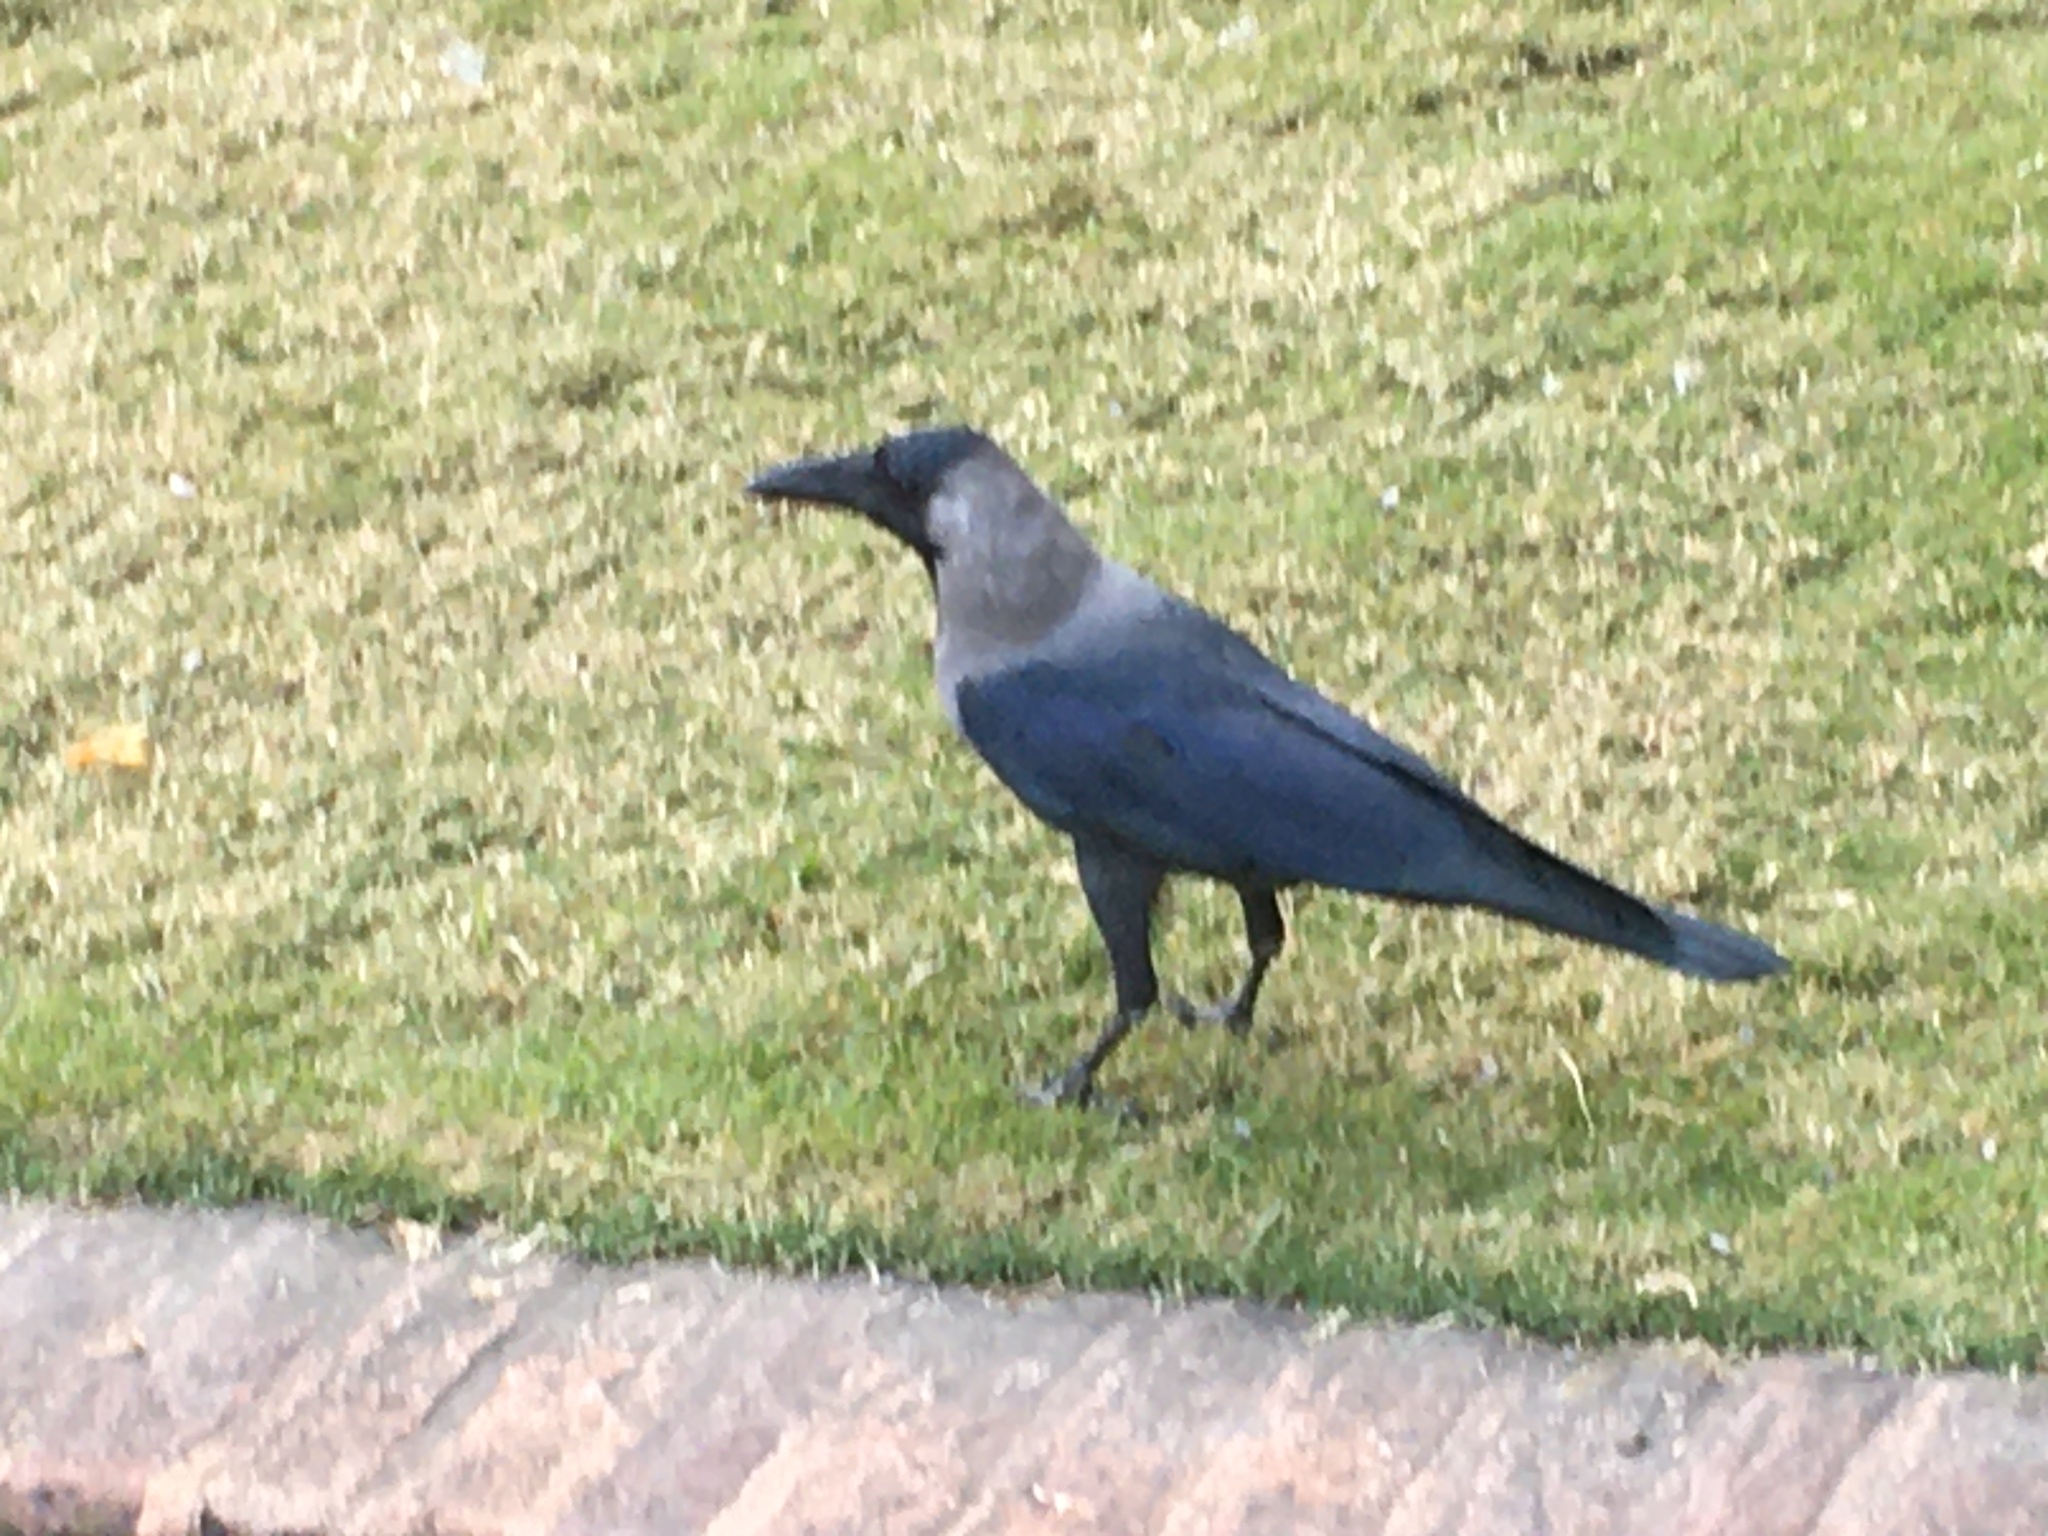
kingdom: Animalia
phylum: Chordata
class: Aves
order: Passeriformes
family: Corvidae
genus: Corvus
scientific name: Corvus splendens
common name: House crow
